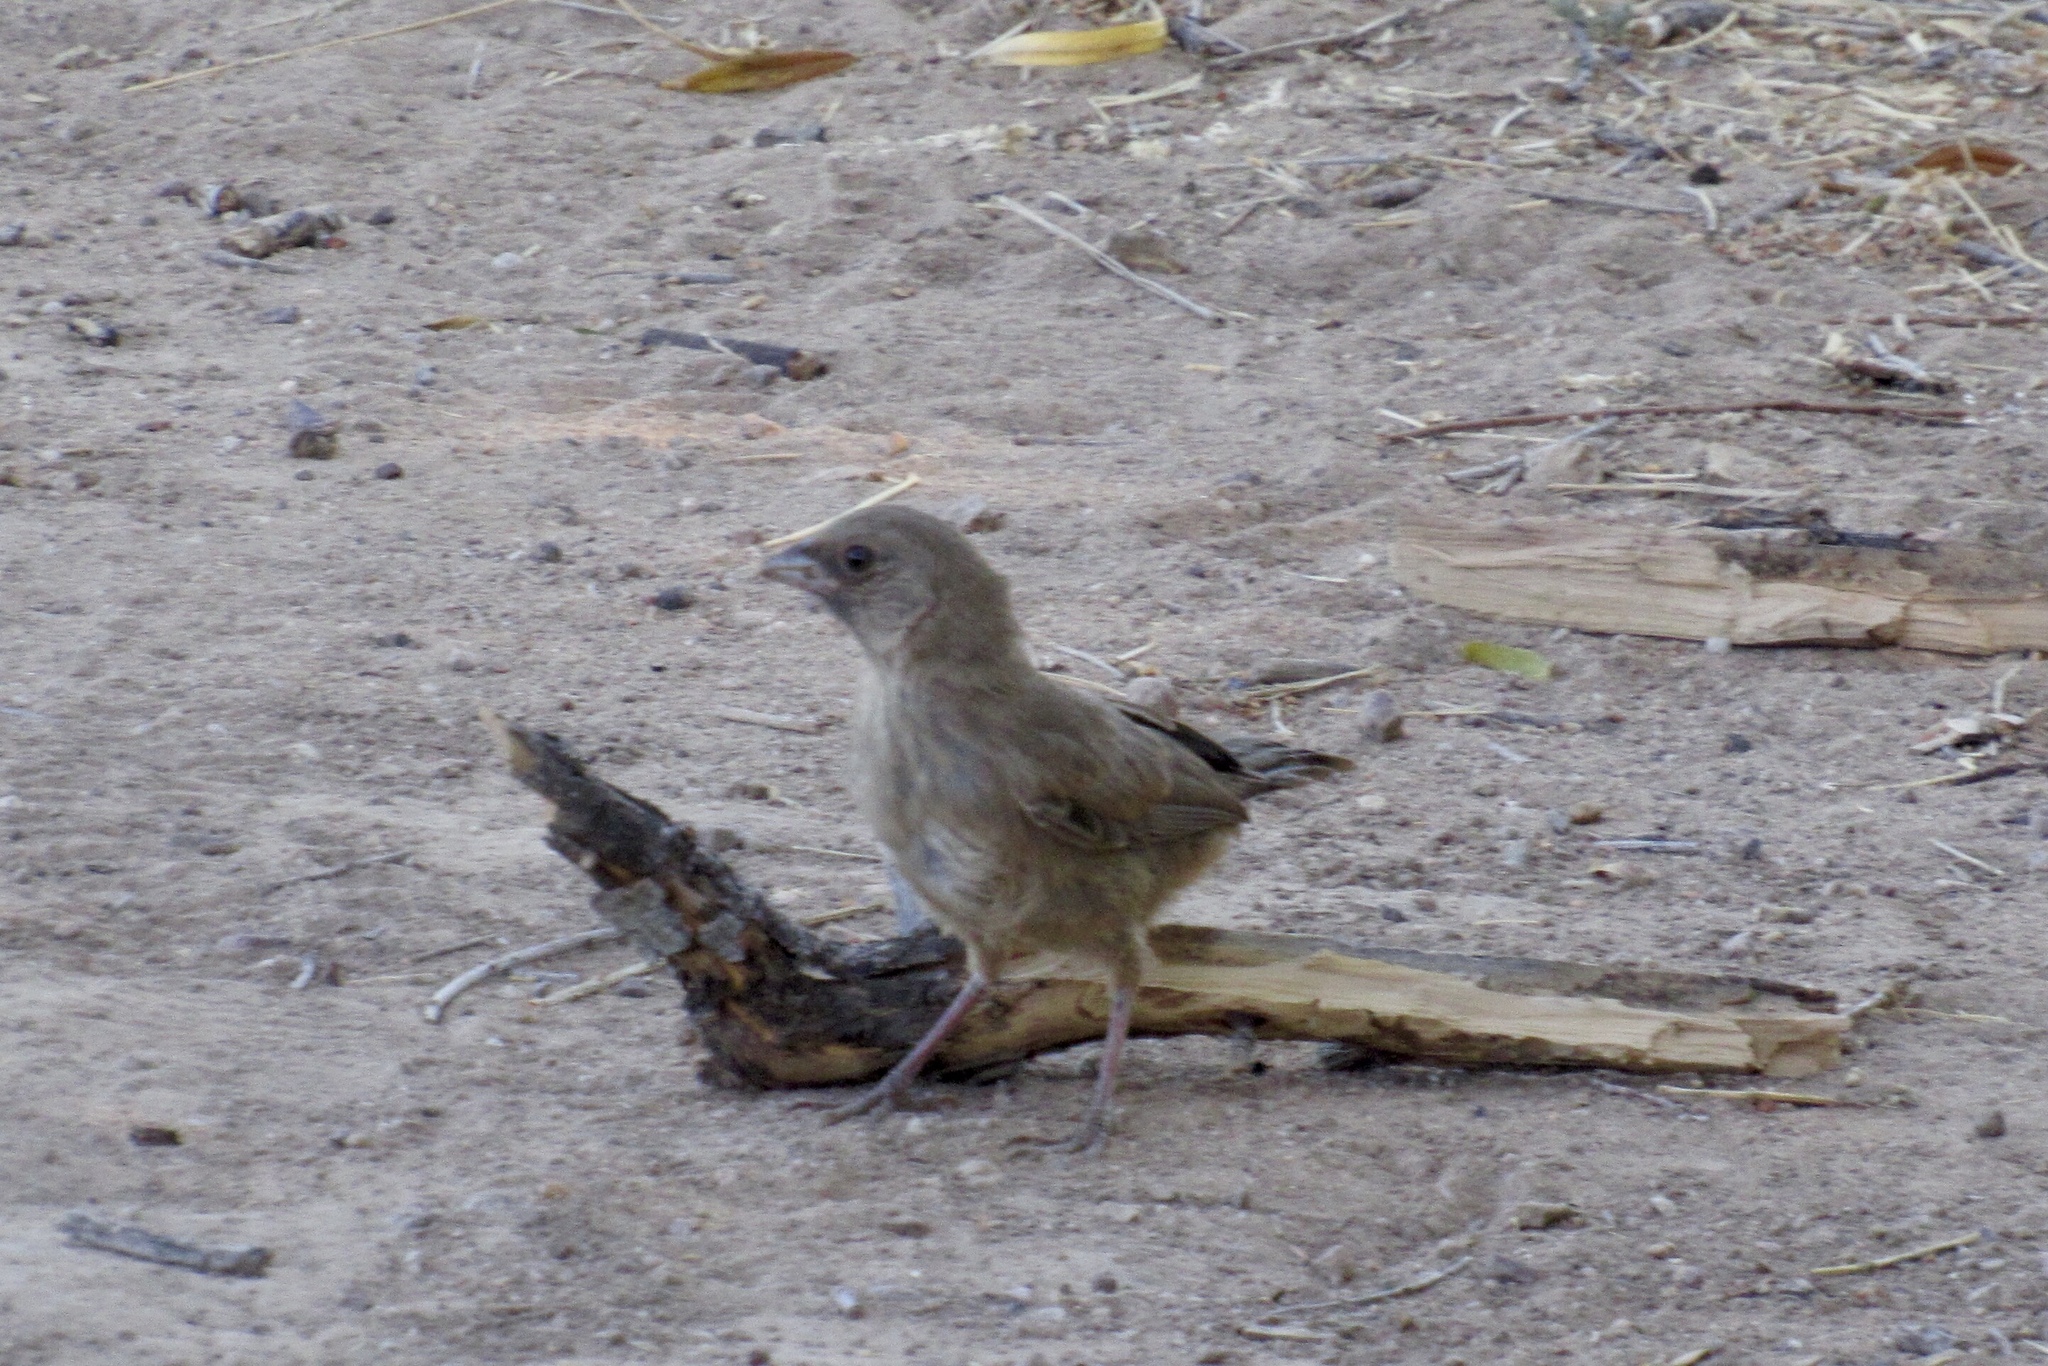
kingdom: Animalia
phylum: Chordata
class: Aves
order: Passeriformes
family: Passerellidae
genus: Melozone
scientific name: Melozone aberti
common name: Abert's towhee
